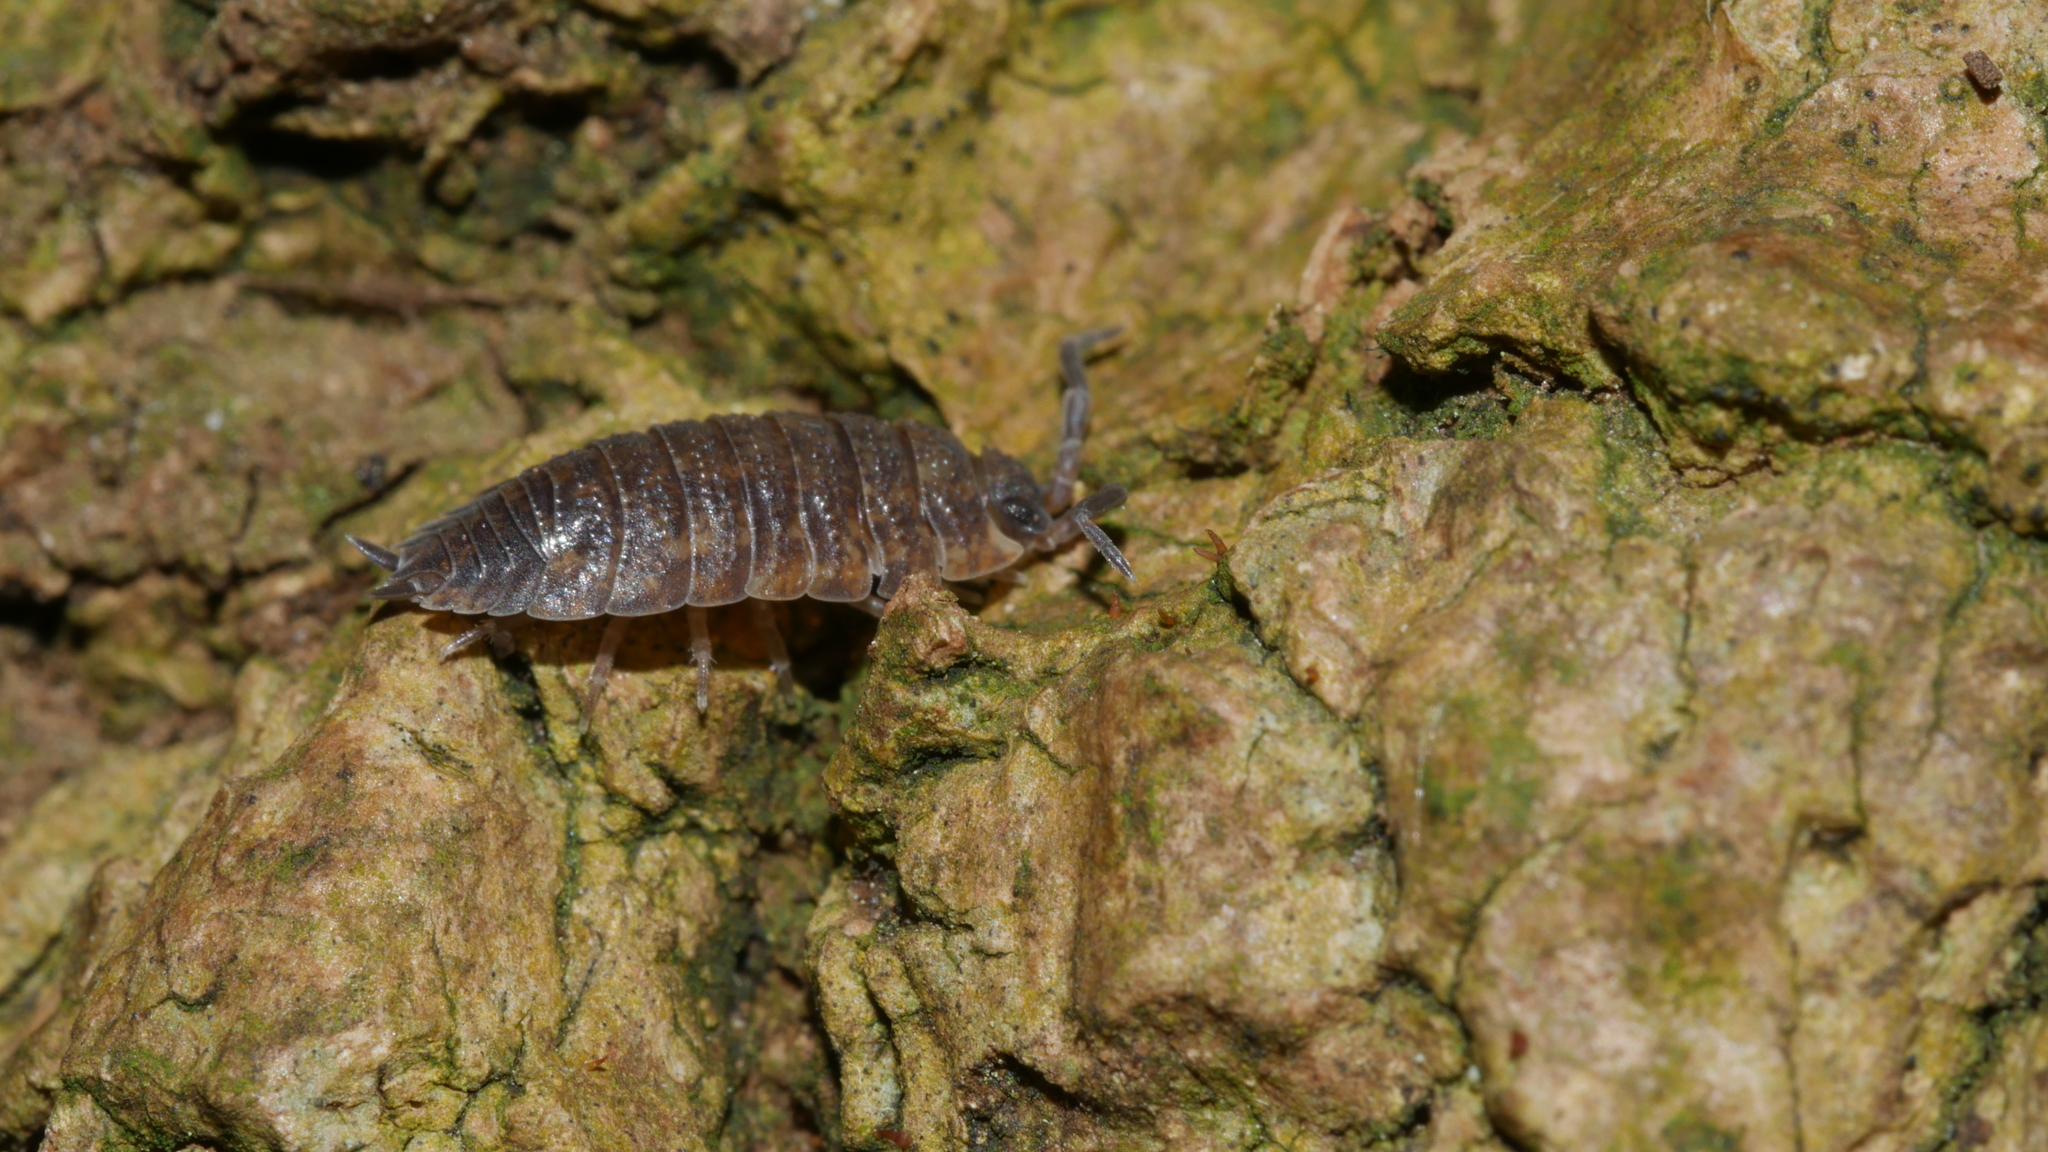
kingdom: Animalia
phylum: Arthropoda
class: Malacostraca
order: Isopoda
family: Porcellionidae
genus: Porcellio
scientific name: Porcellio scaber
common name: Common rough woodlouse
